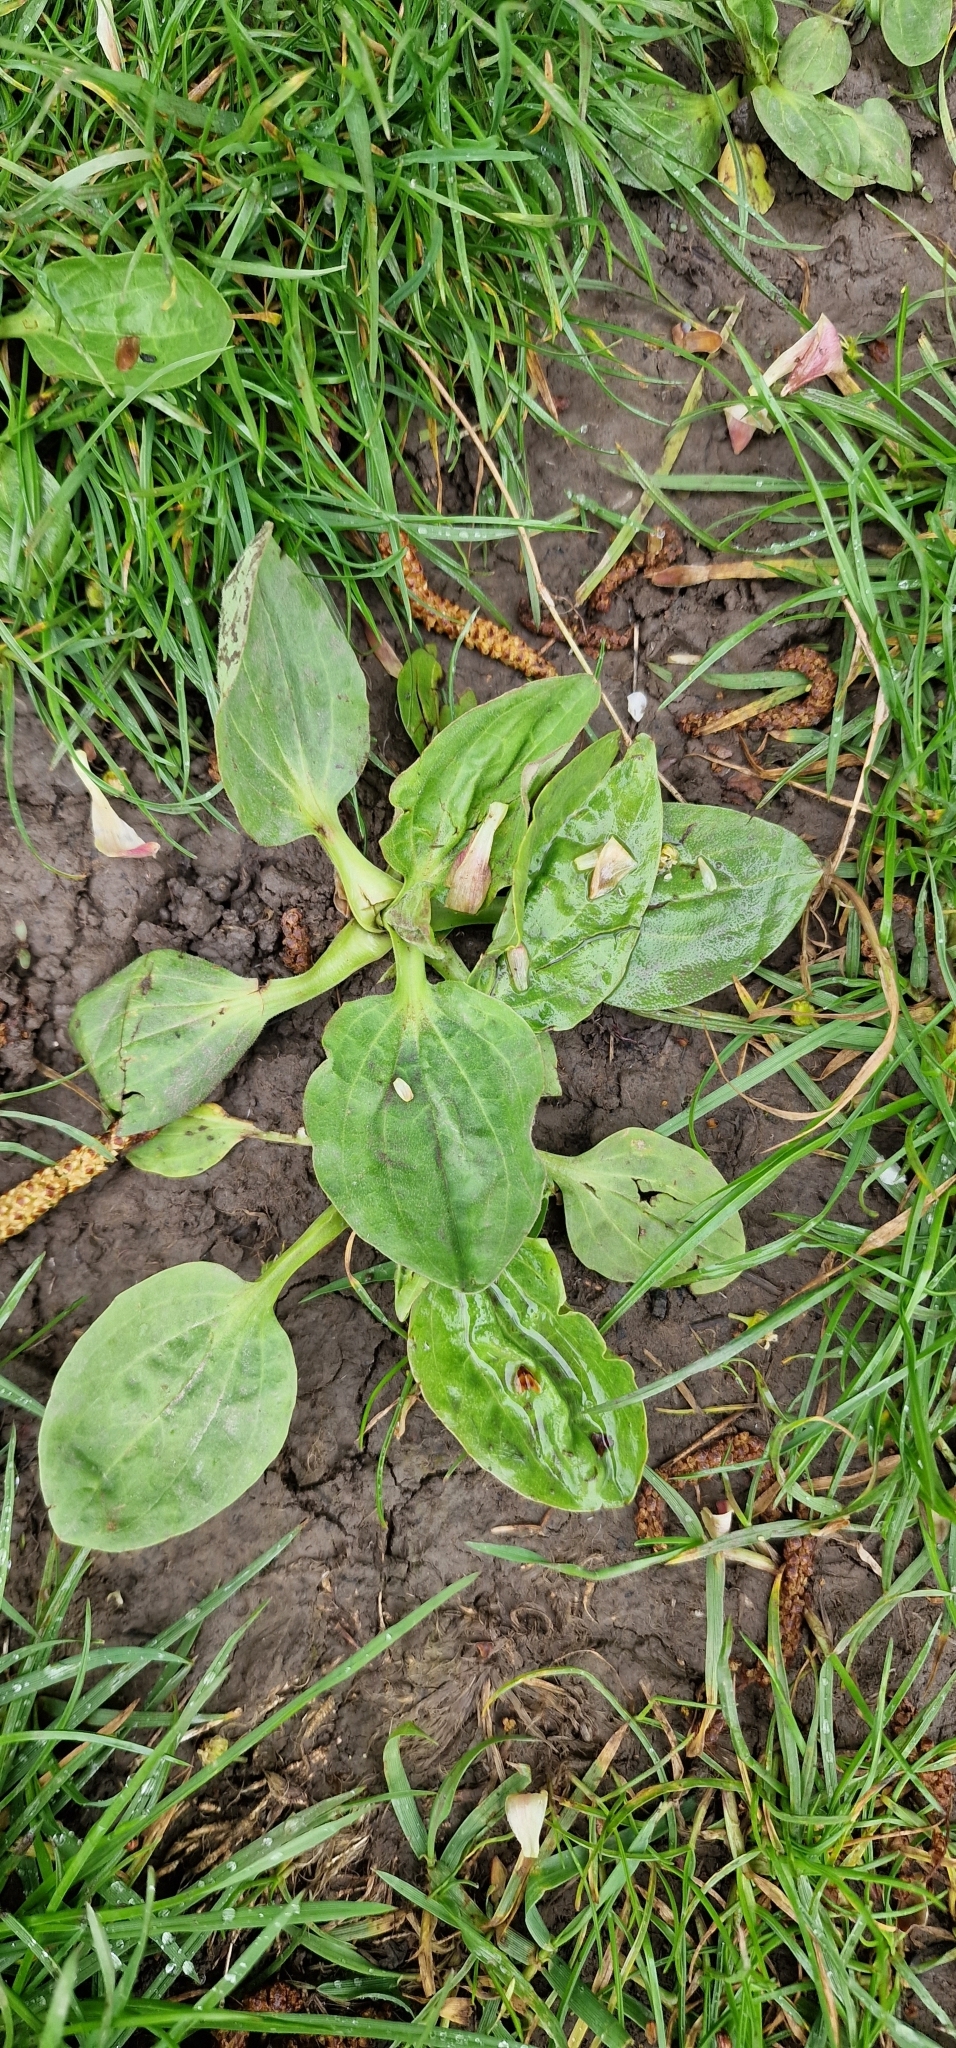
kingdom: Plantae
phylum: Tracheophyta
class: Magnoliopsida
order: Lamiales
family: Plantaginaceae
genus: Plantago
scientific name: Plantago major
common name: Common plantain
